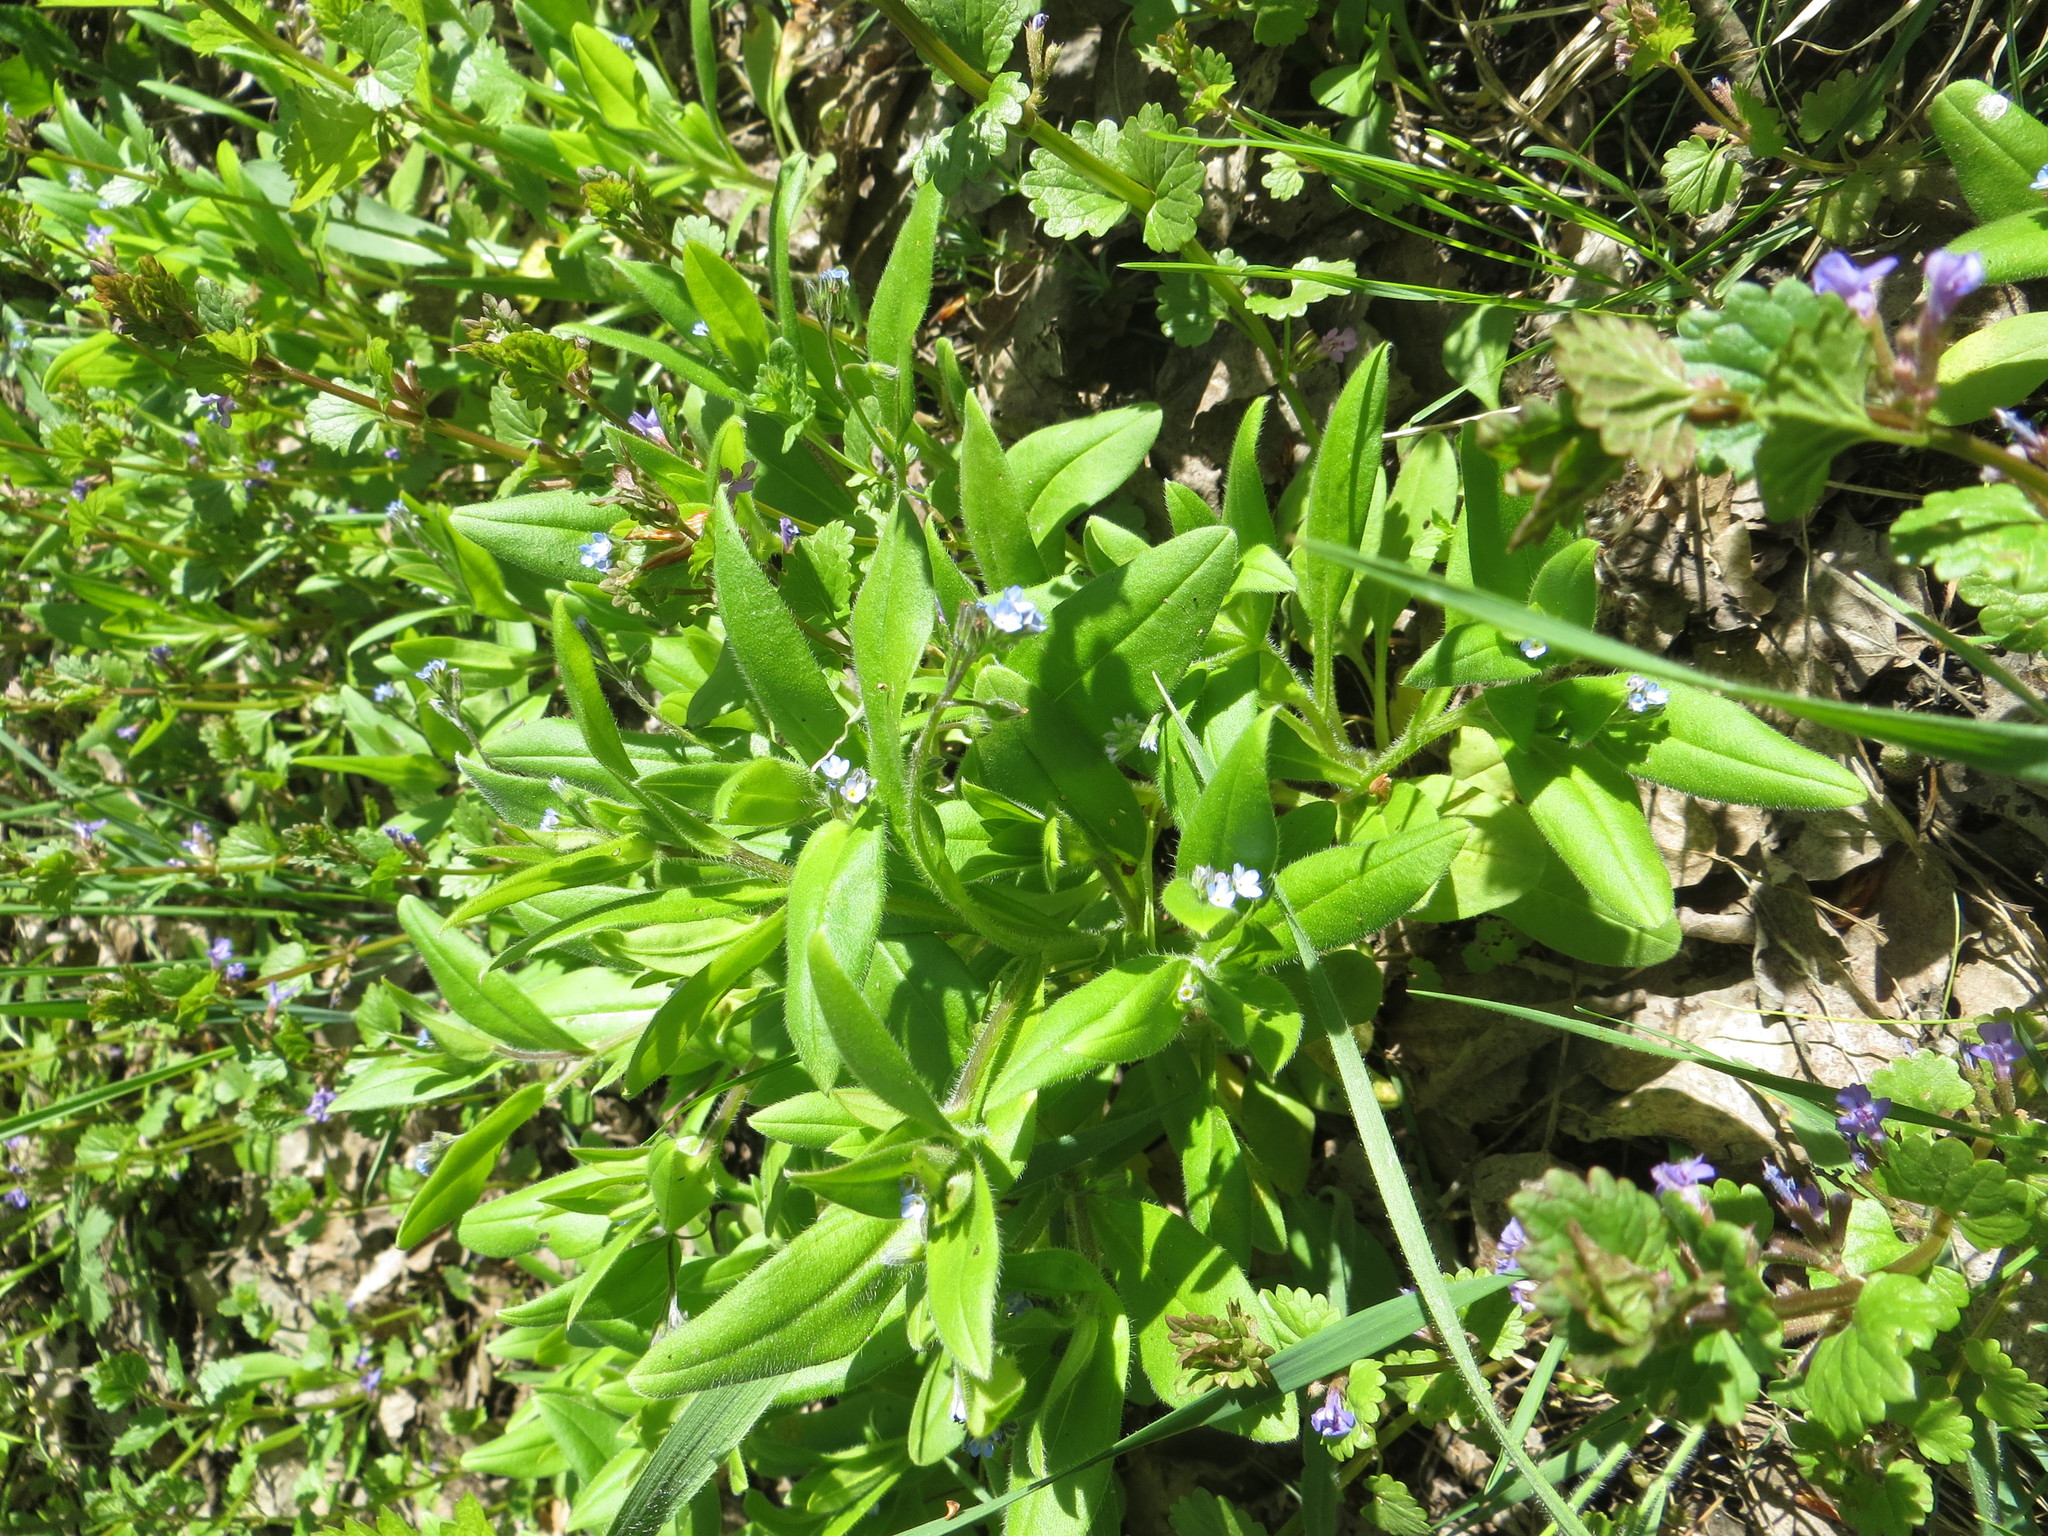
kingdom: Plantae
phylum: Tracheophyta
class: Magnoliopsida
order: Boraginales
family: Boraginaceae
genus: Myosotis
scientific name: Myosotis sparsiflora
